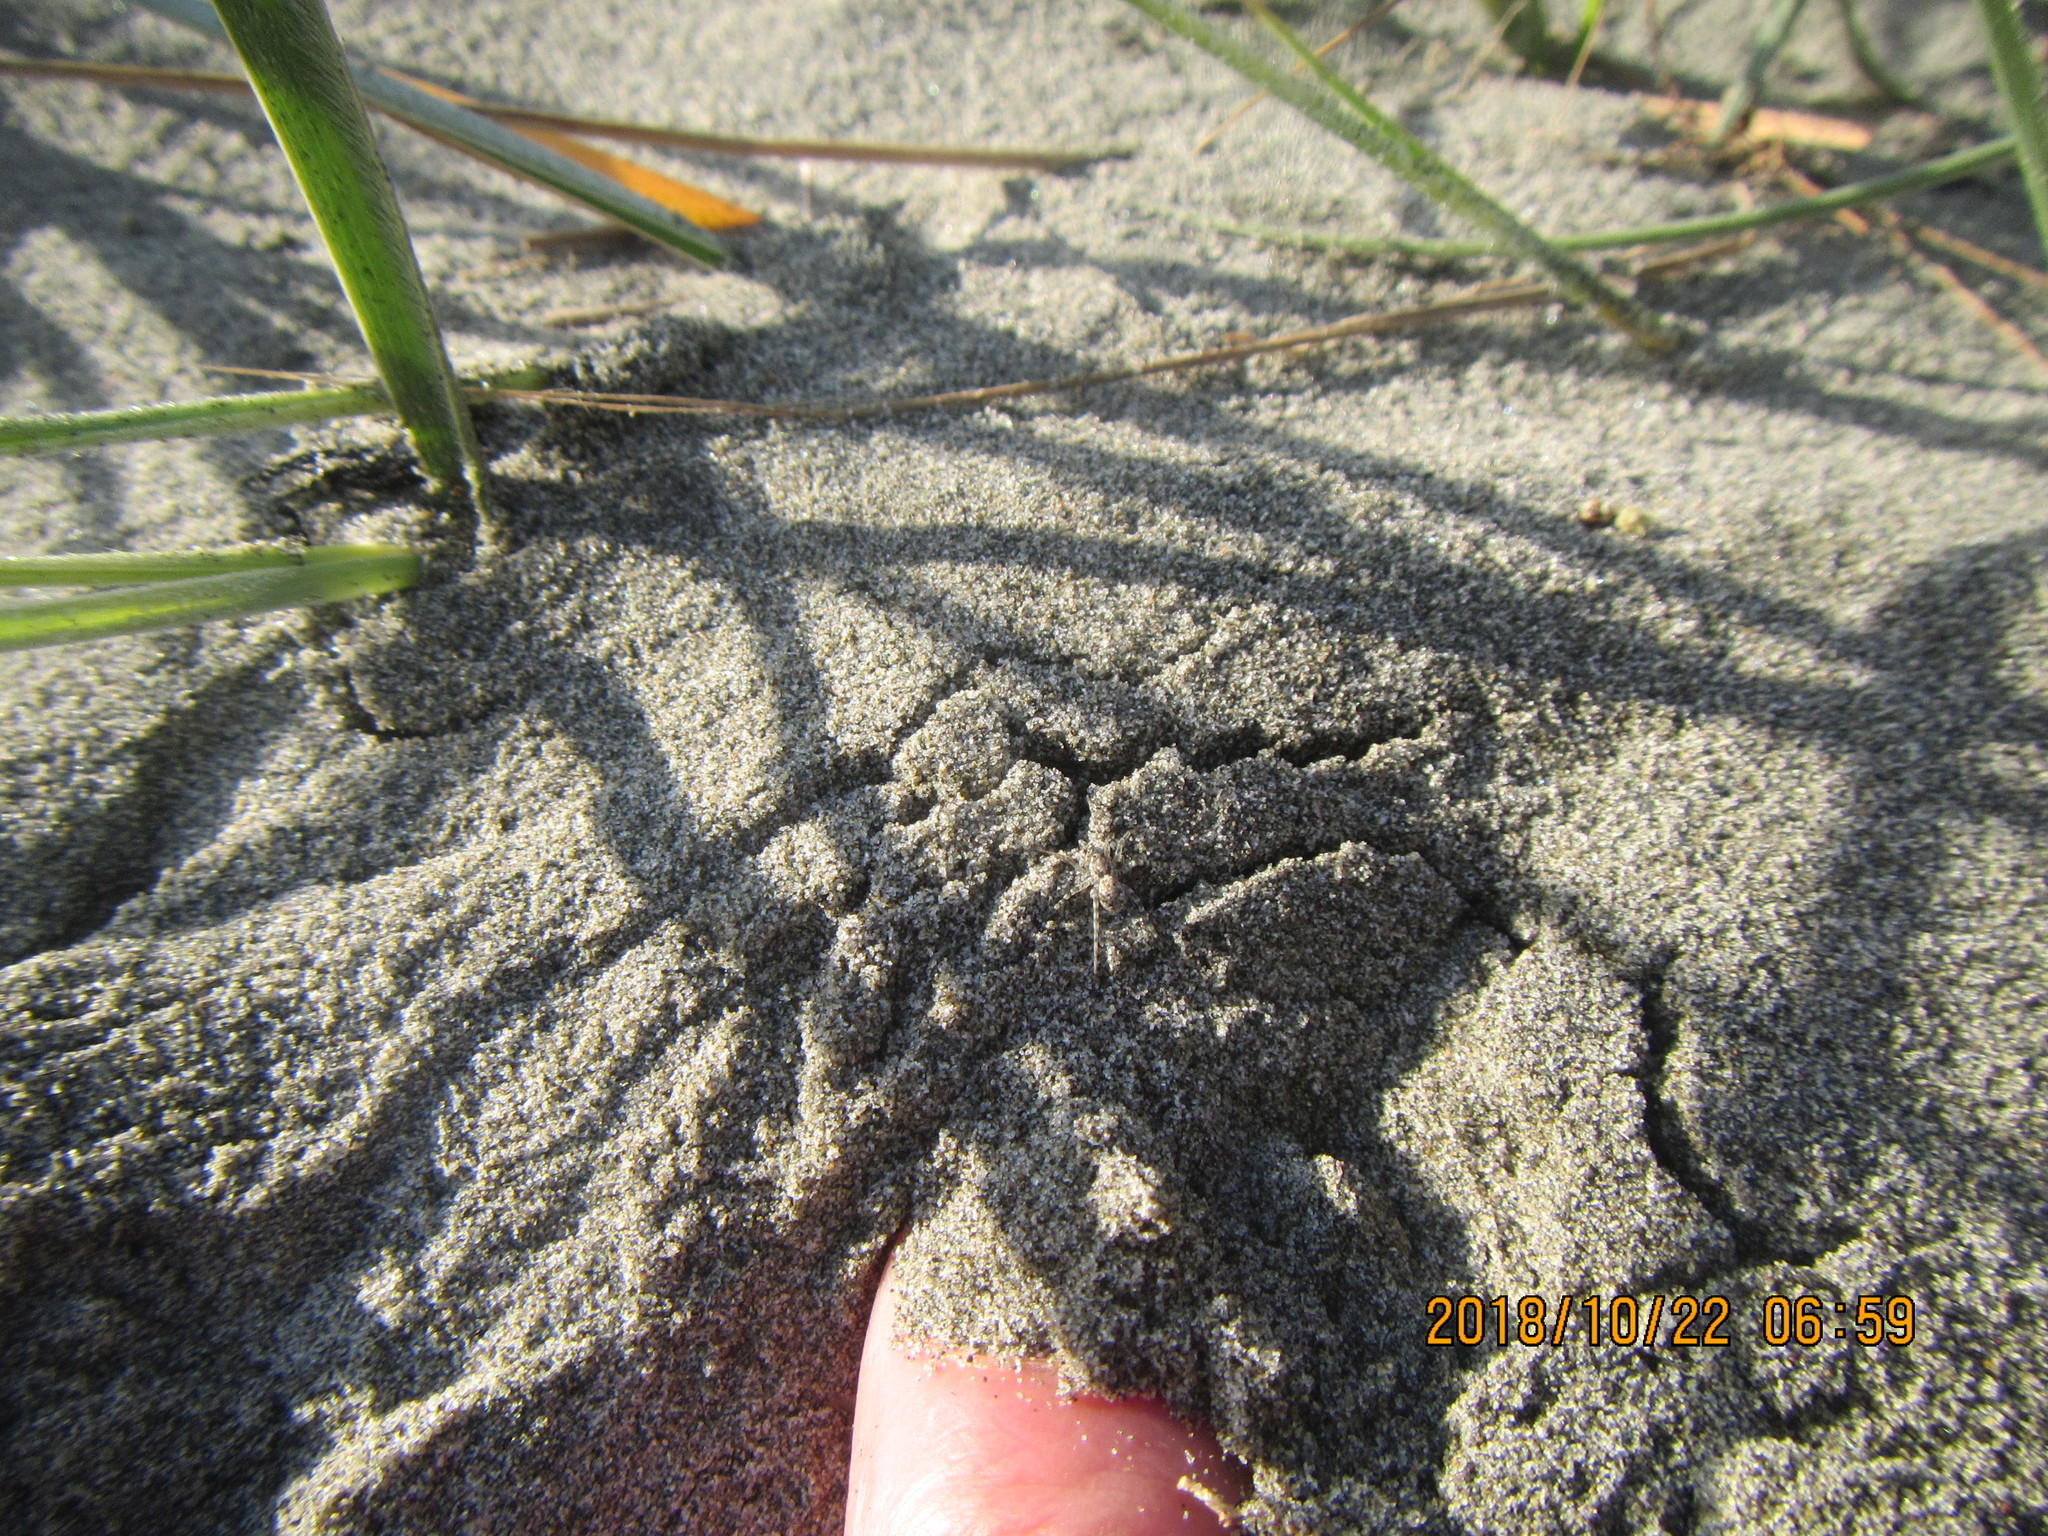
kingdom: Animalia
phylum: Arthropoda
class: Arachnida
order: Araneae
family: Lycosidae
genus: Anoteropsis
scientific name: Anoteropsis litoralis
